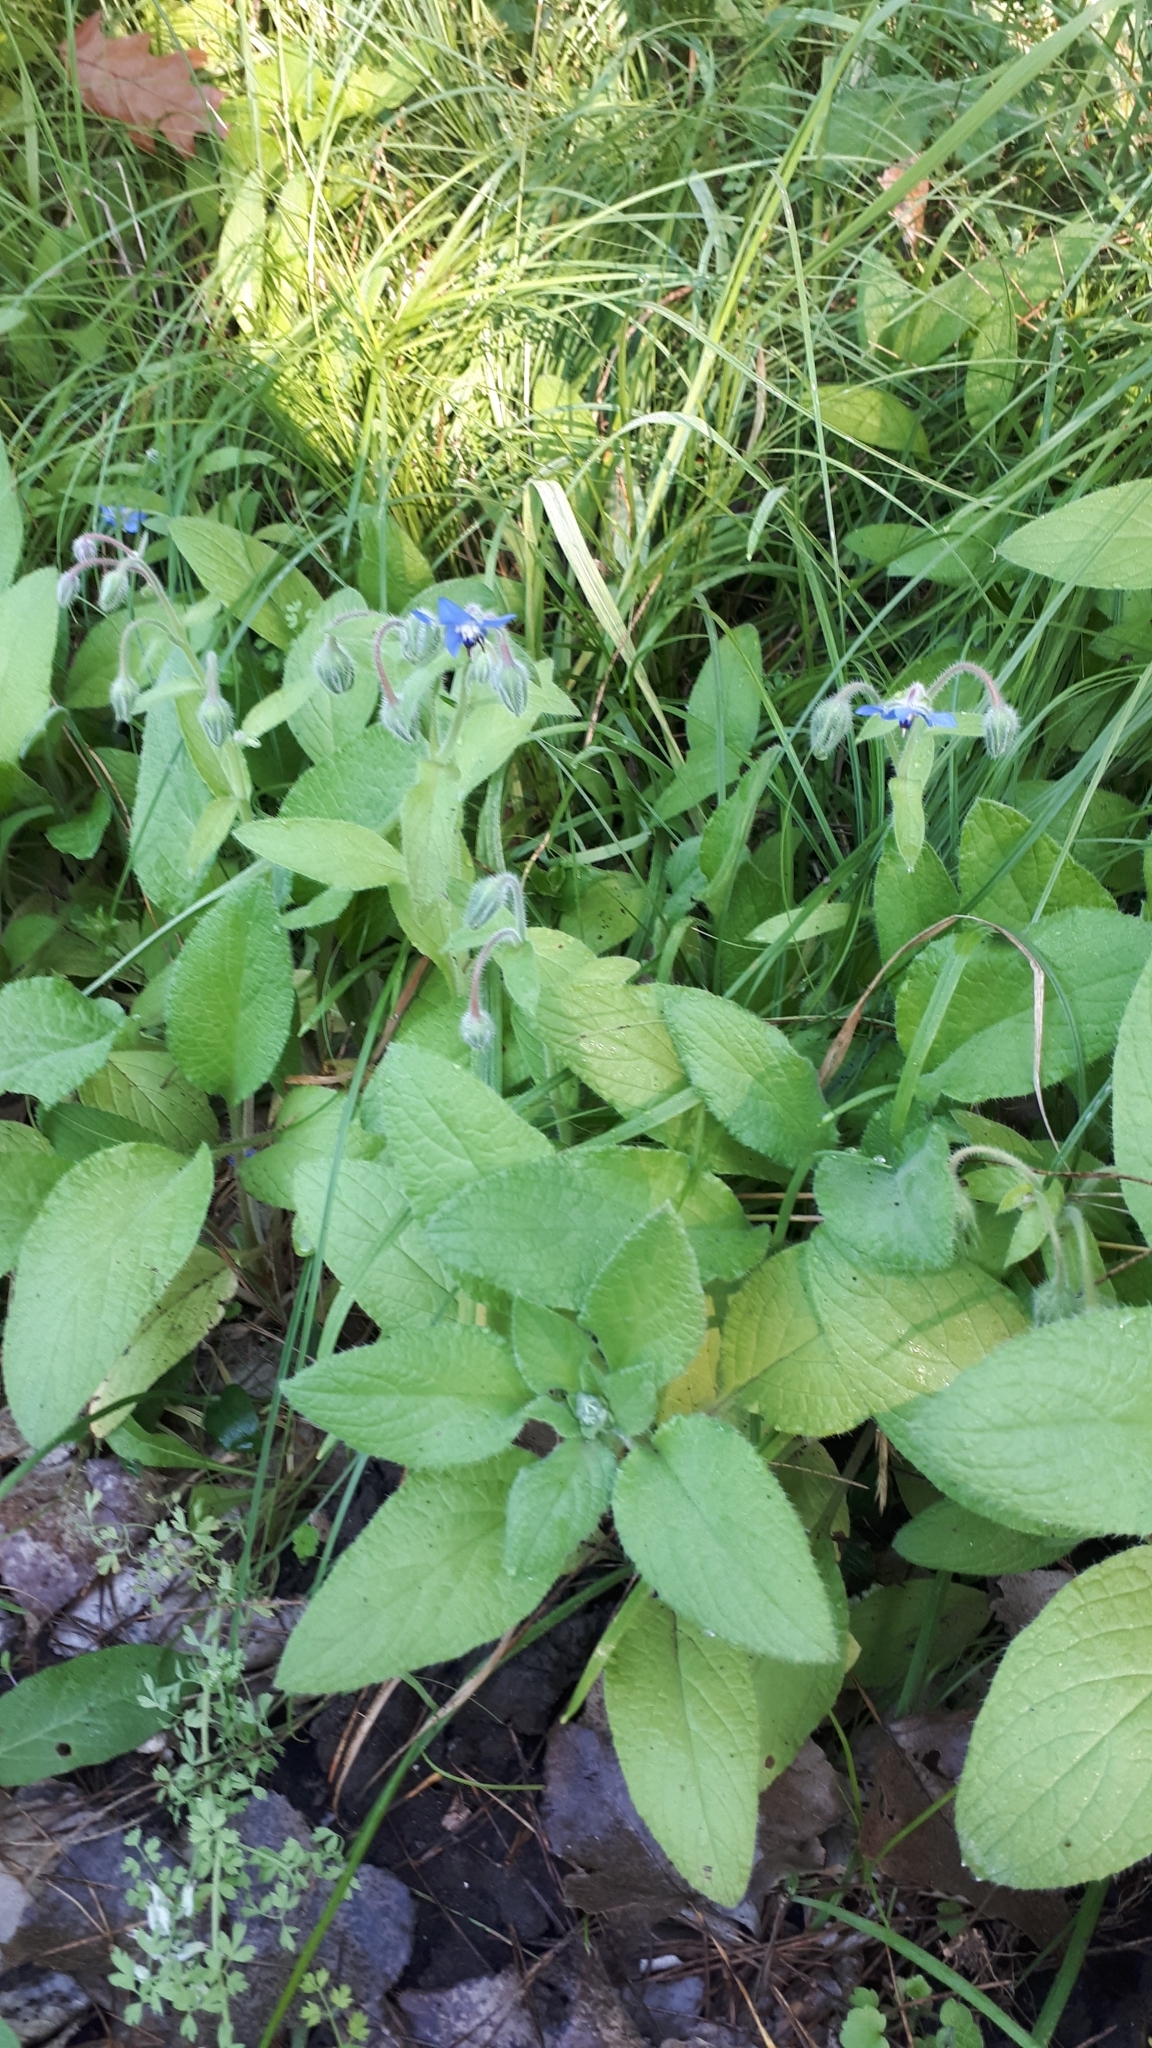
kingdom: Plantae
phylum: Tracheophyta
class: Magnoliopsida
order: Boraginales
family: Boraginaceae
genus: Borago
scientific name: Borago officinalis
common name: Borage
